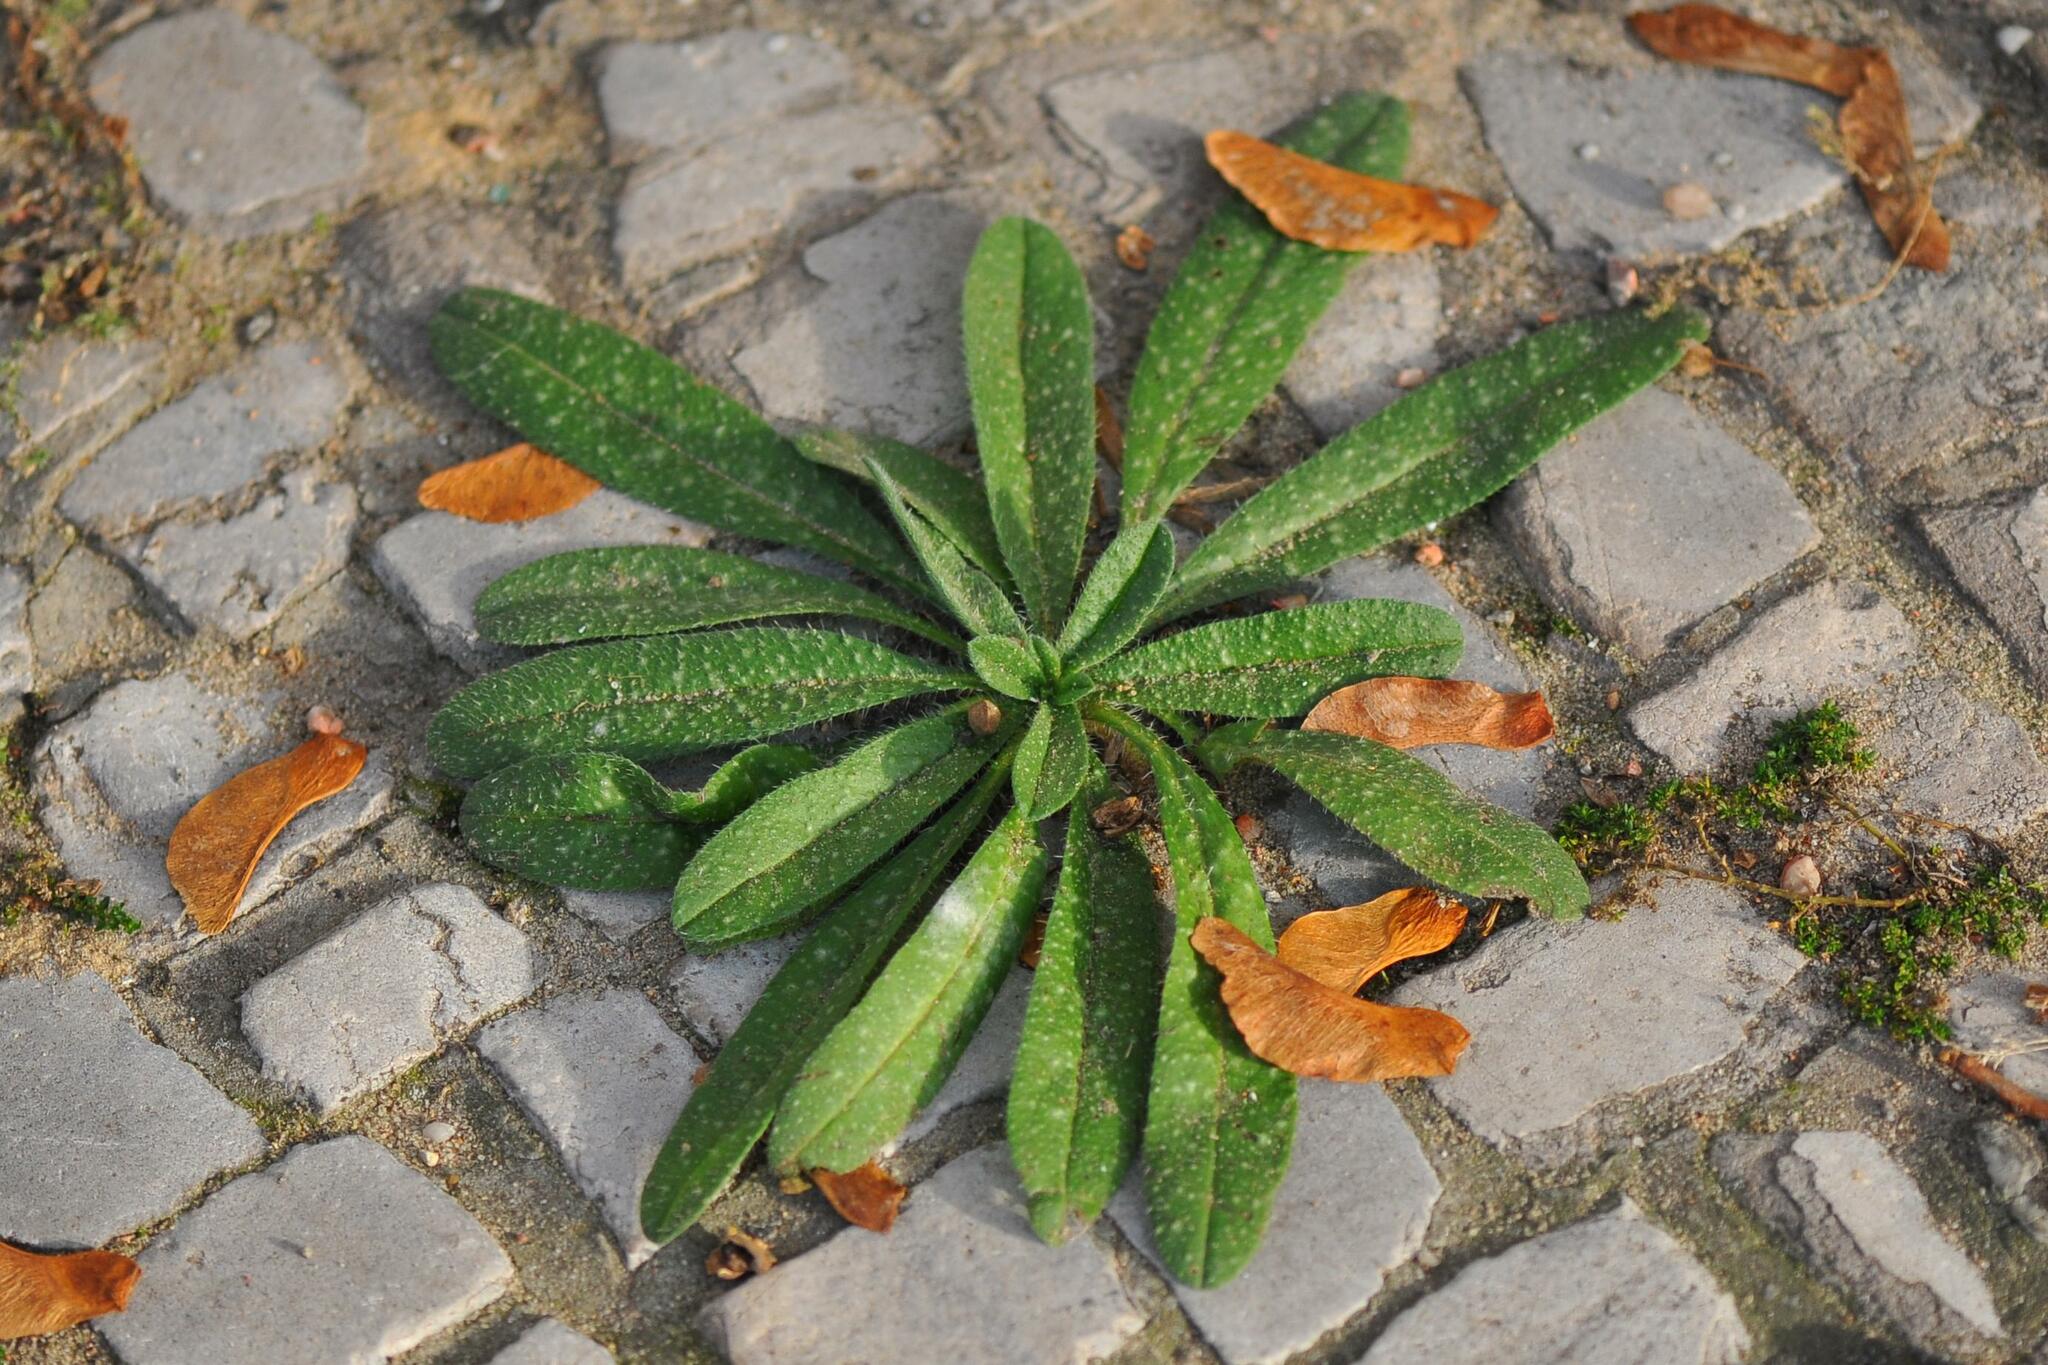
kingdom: Plantae
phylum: Tracheophyta
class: Magnoliopsida
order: Boraginales
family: Boraginaceae
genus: Echium
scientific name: Echium vulgare
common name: Common viper's bugloss
